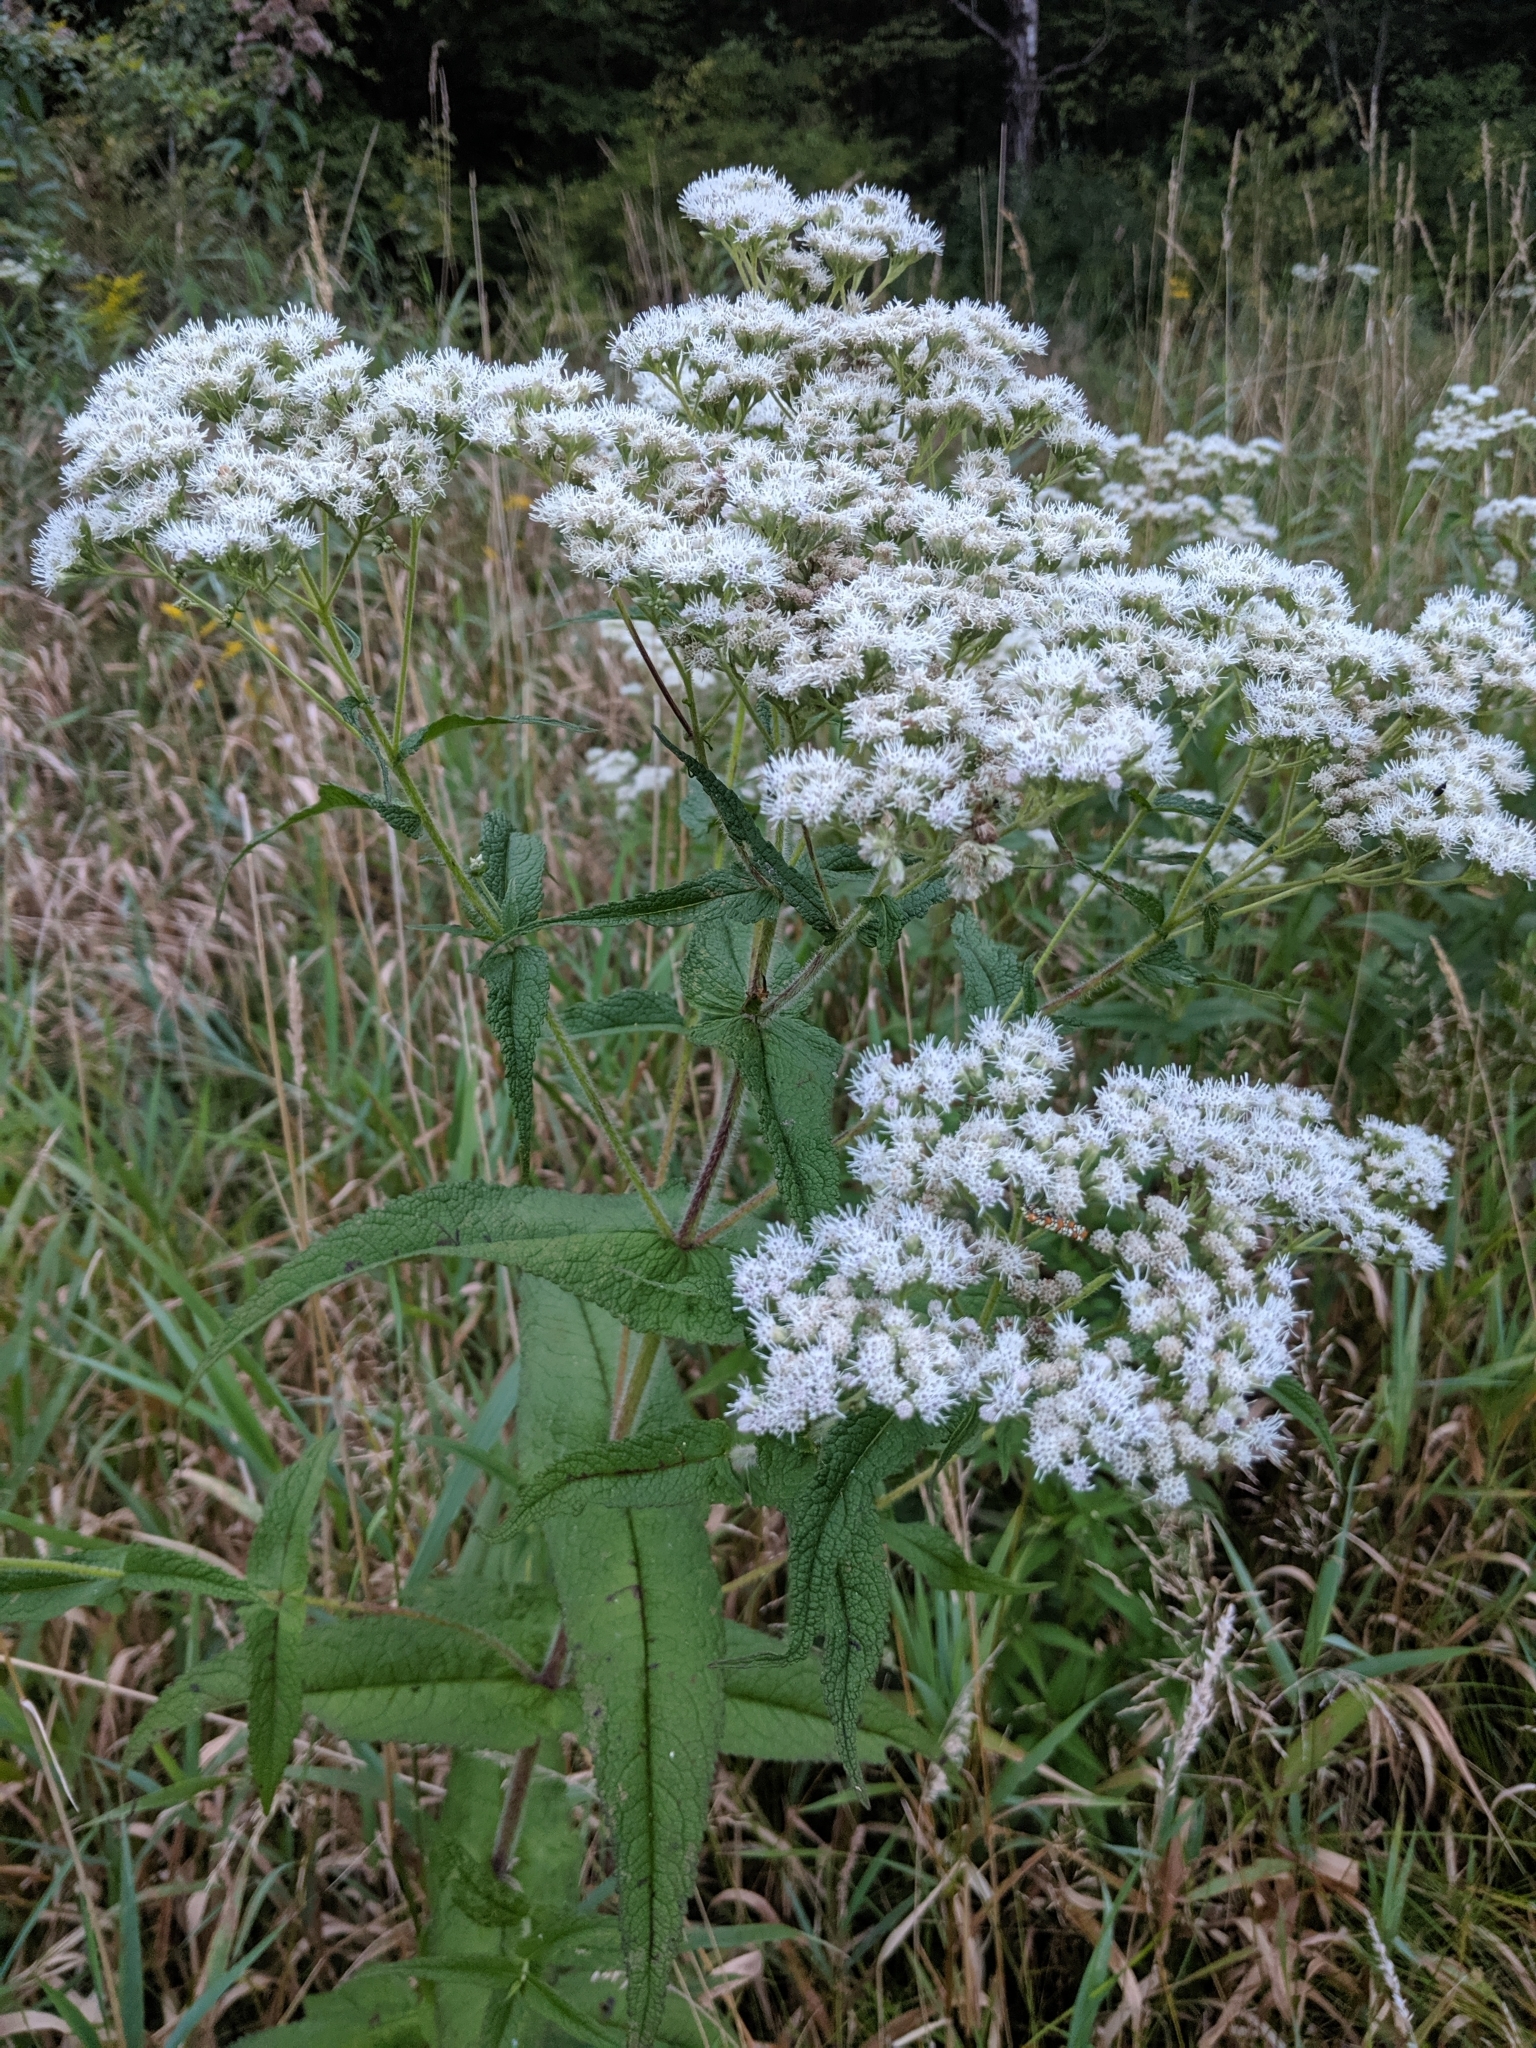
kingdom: Plantae
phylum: Tracheophyta
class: Magnoliopsida
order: Asterales
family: Asteraceae
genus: Eupatorium
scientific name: Eupatorium perfoliatum
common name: Boneset
